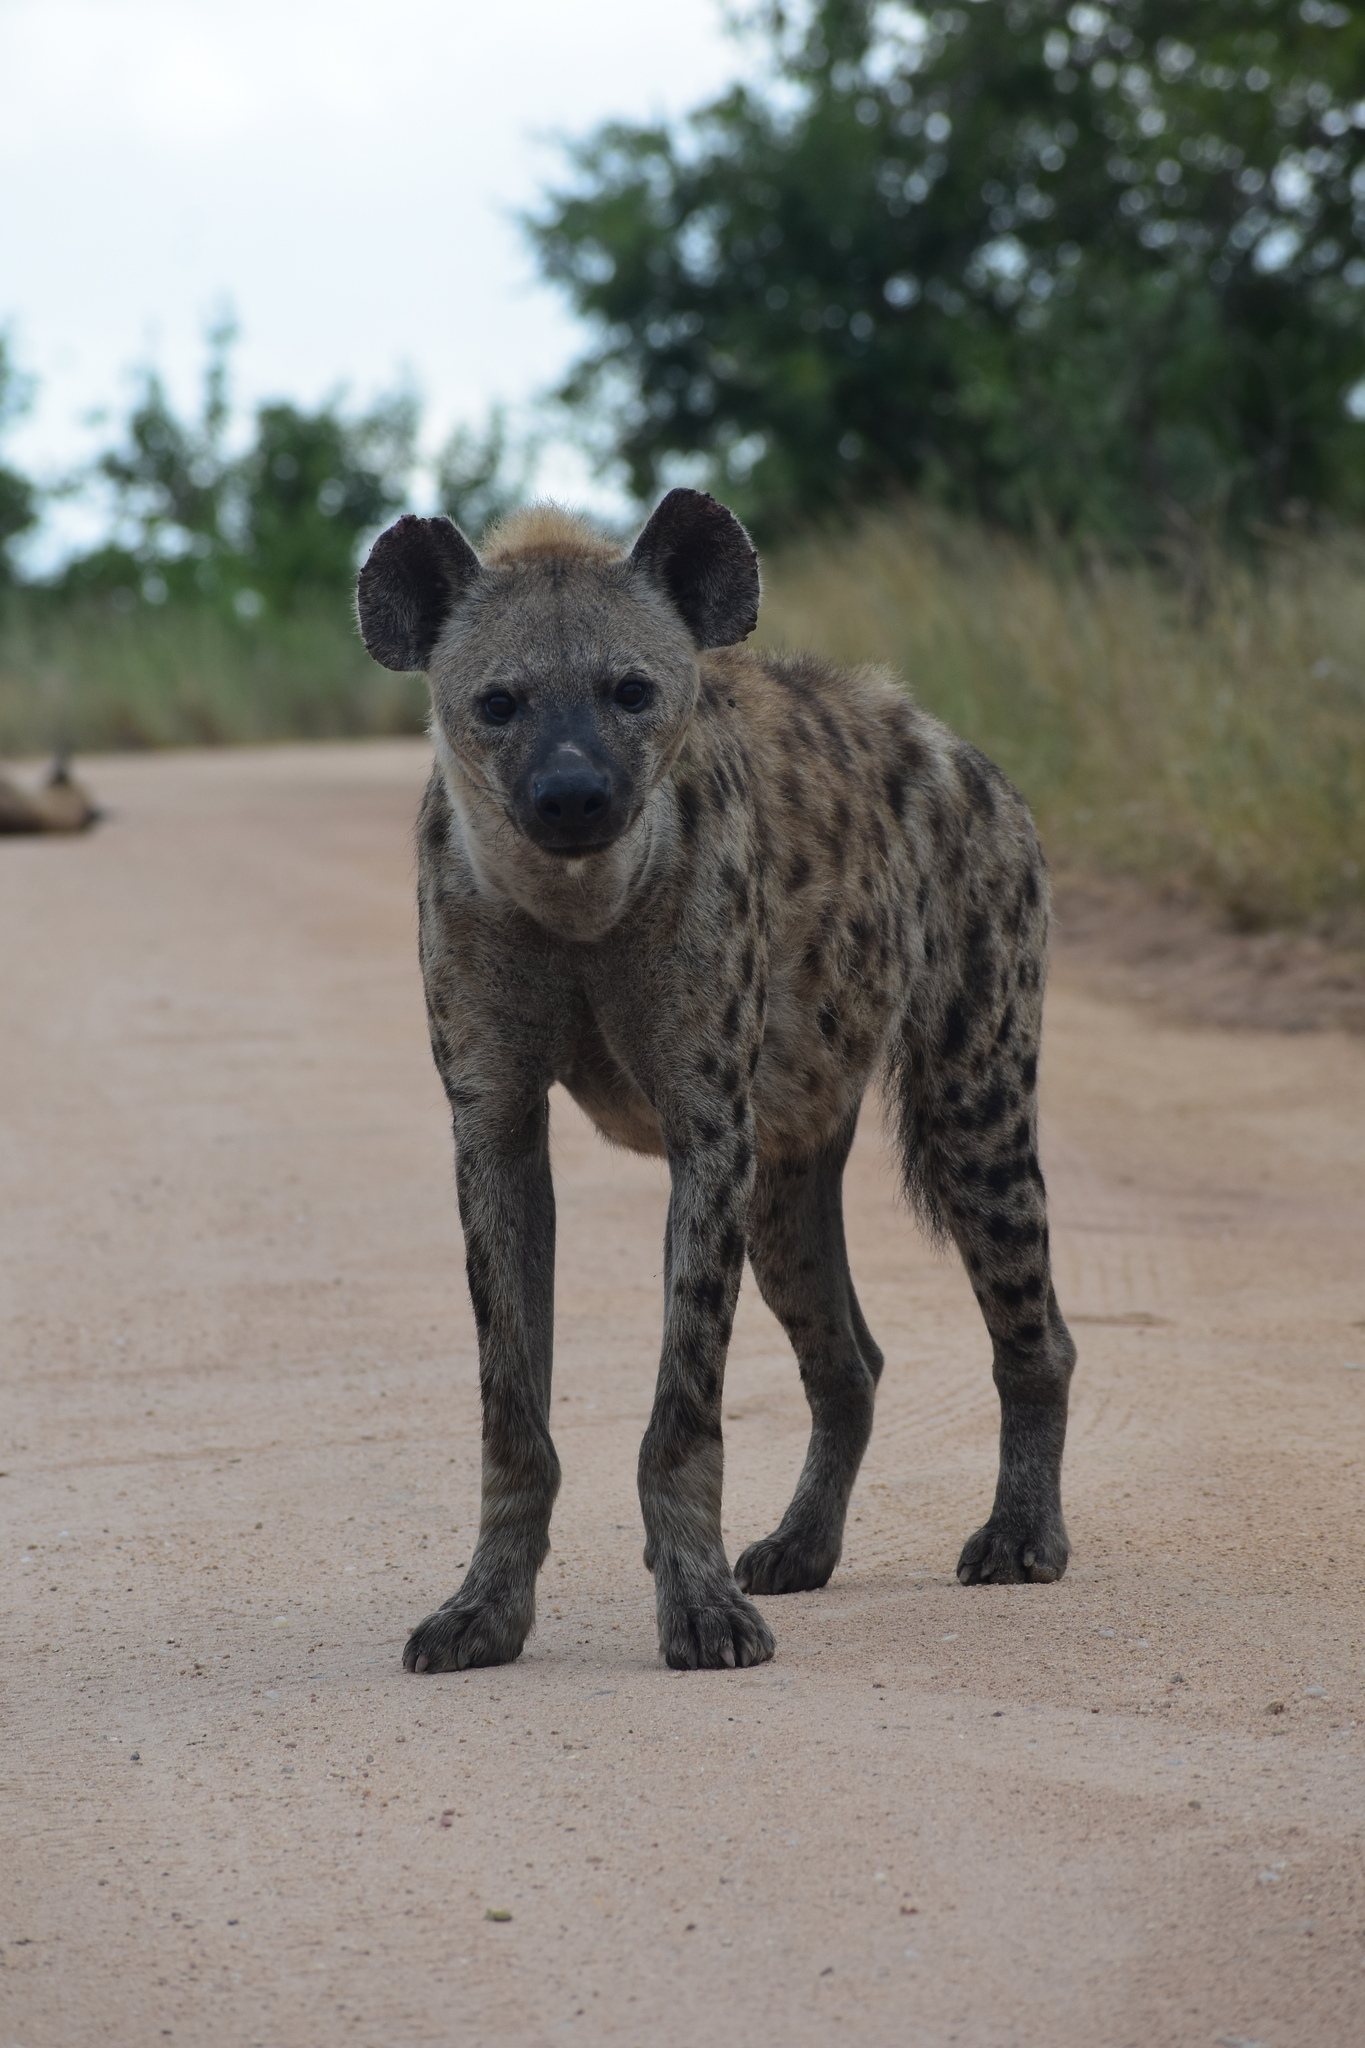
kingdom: Animalia
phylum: Chordata
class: Mammalia
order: Carnivora
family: Hyaenidae
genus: Crocuta
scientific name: Crocuta crocuta
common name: Spotted hyaena
